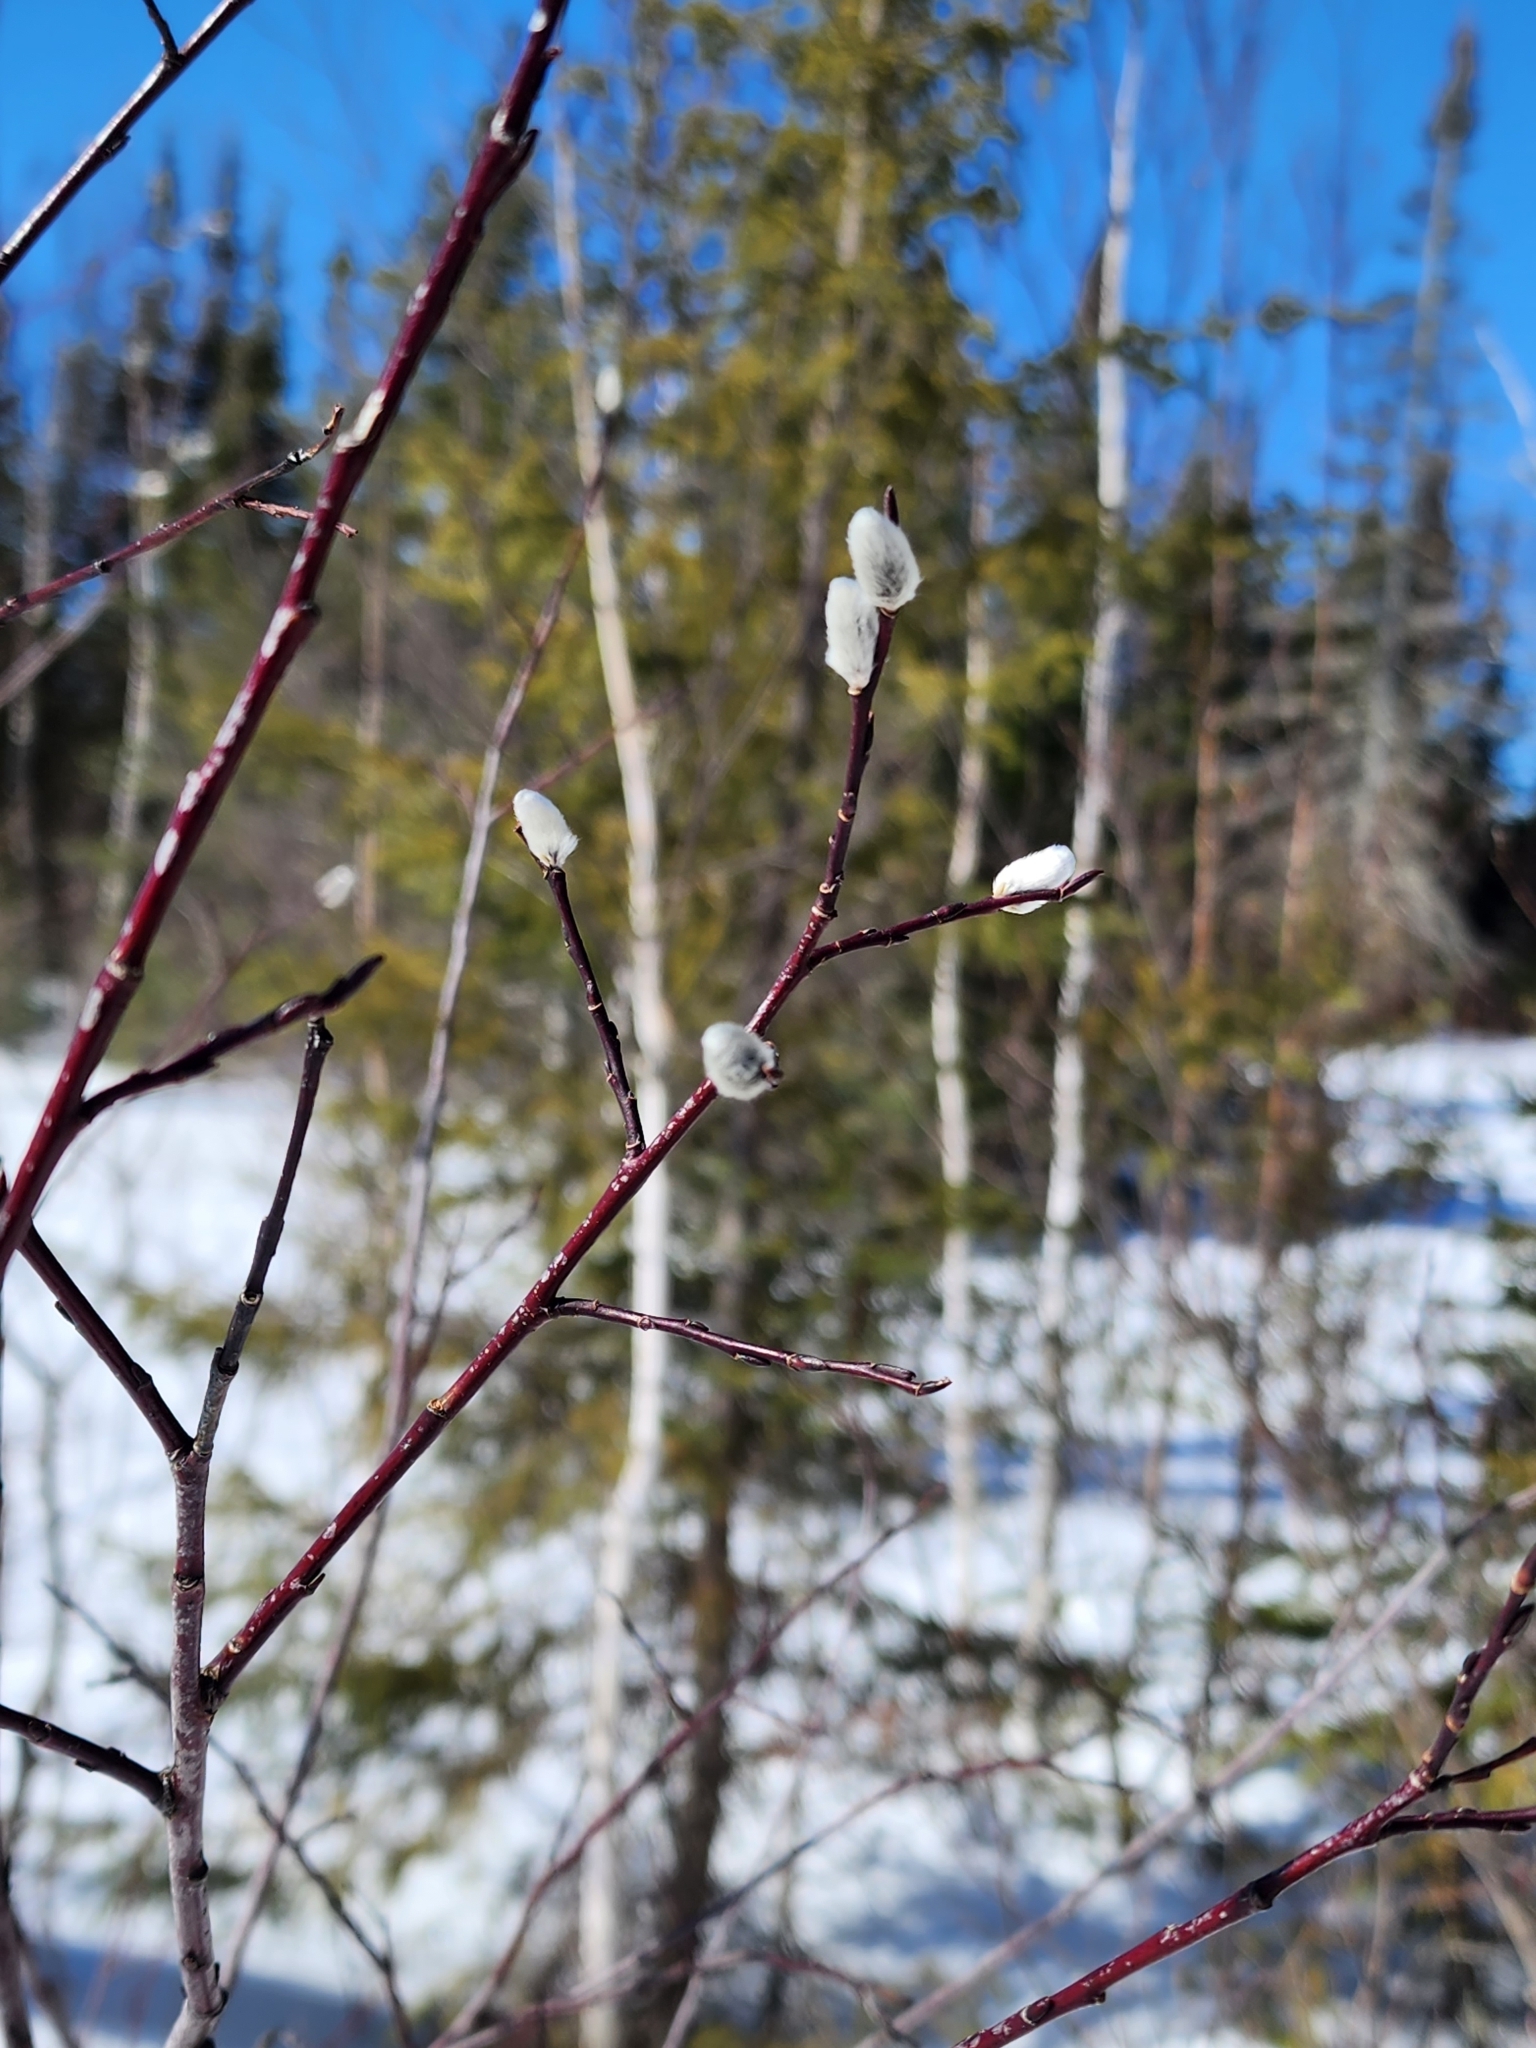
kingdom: Plantae
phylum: Tracheophyta
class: Magnoliopsida
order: Malpighiales
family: Salicaceae
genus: Salix
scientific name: Salix discolor
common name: Glaucous willow
